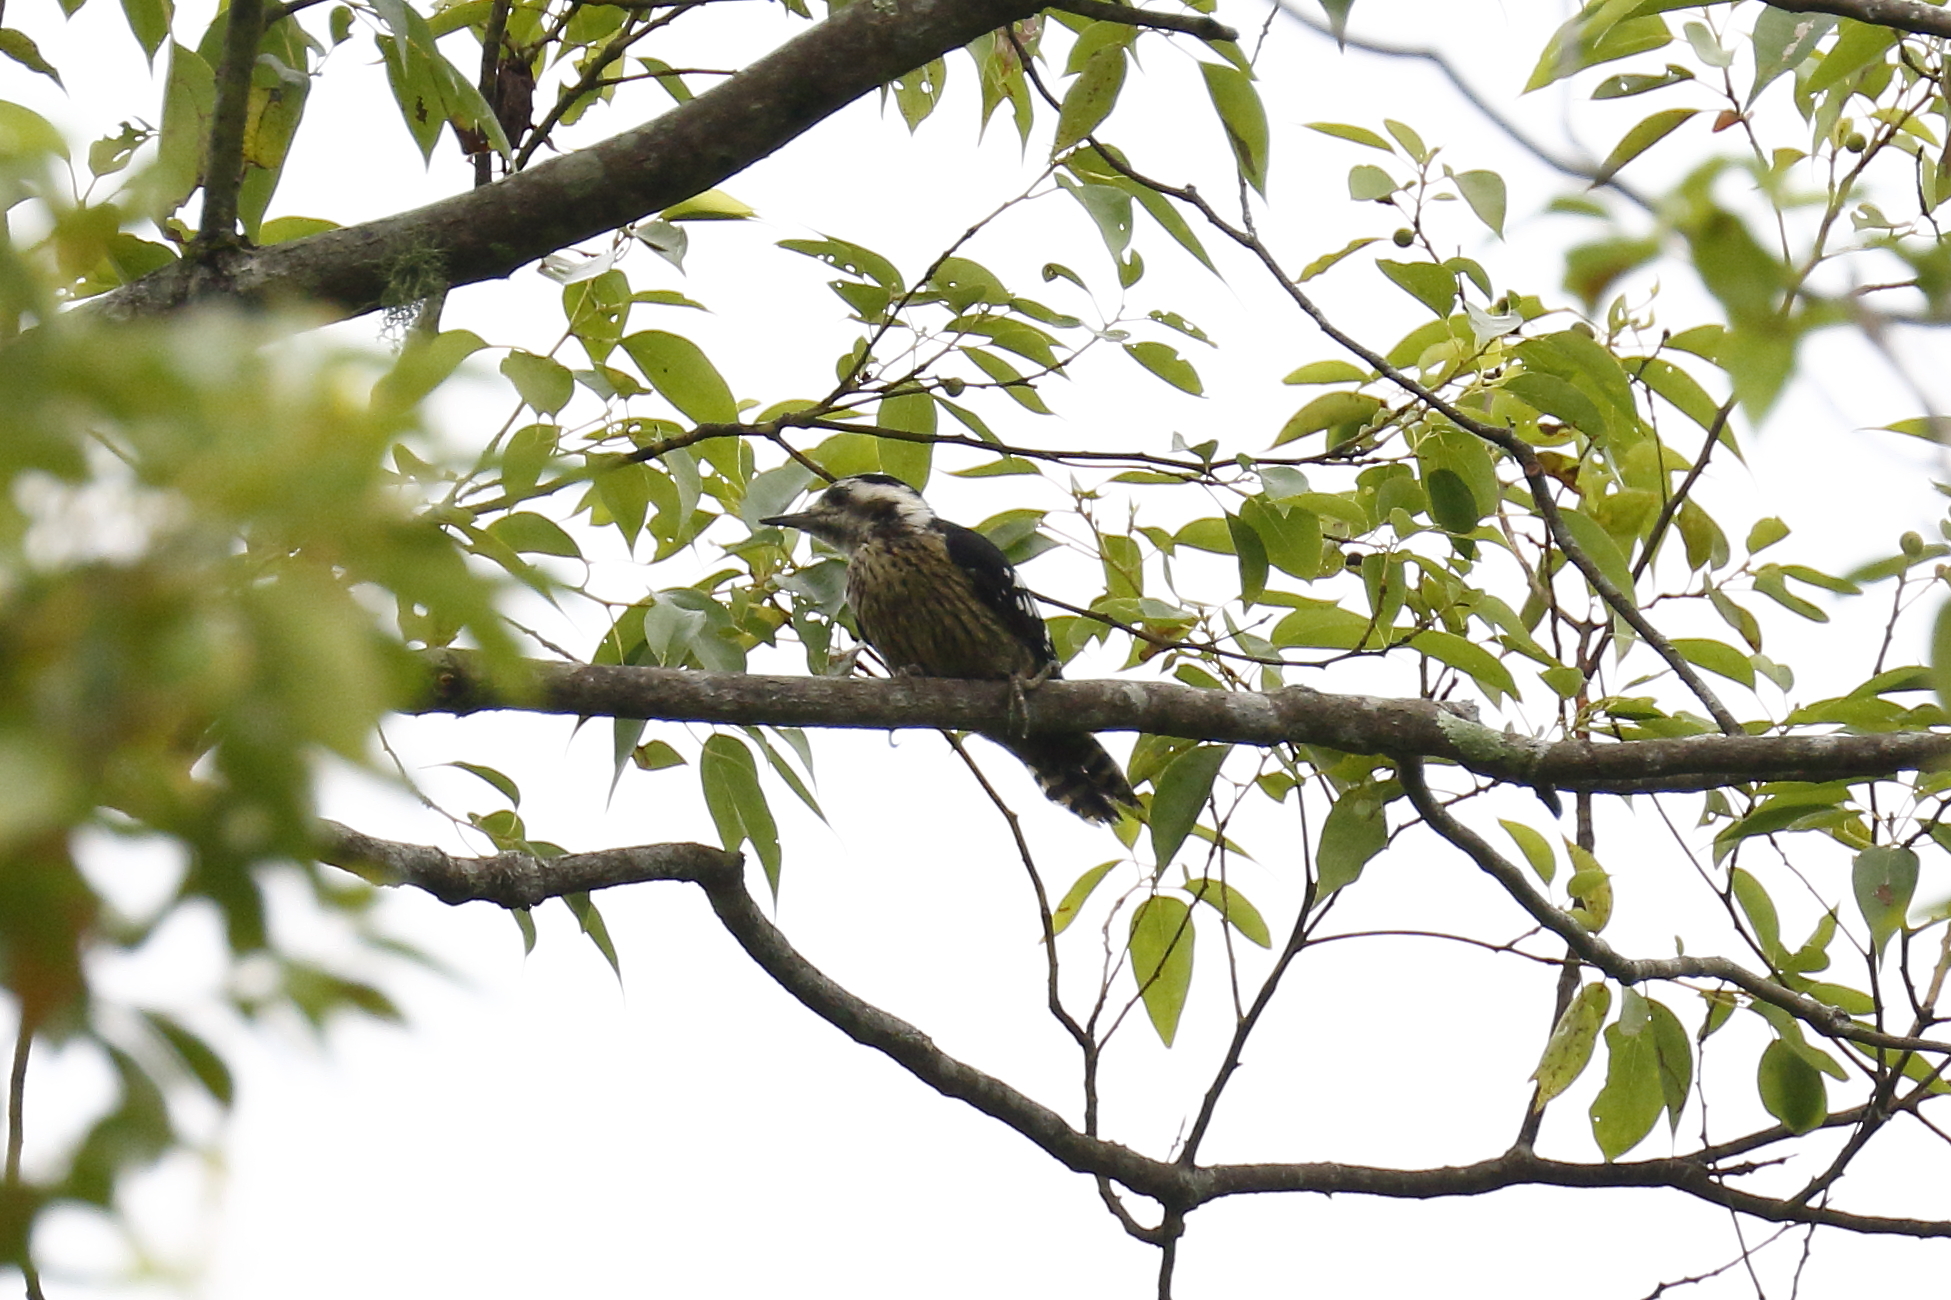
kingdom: Animalia
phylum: Chordata
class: Aves
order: Piciformes
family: Picidae
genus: Yungipicus
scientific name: Yungipicus canicapillus
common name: Grey-capped pygmy woodpecker
